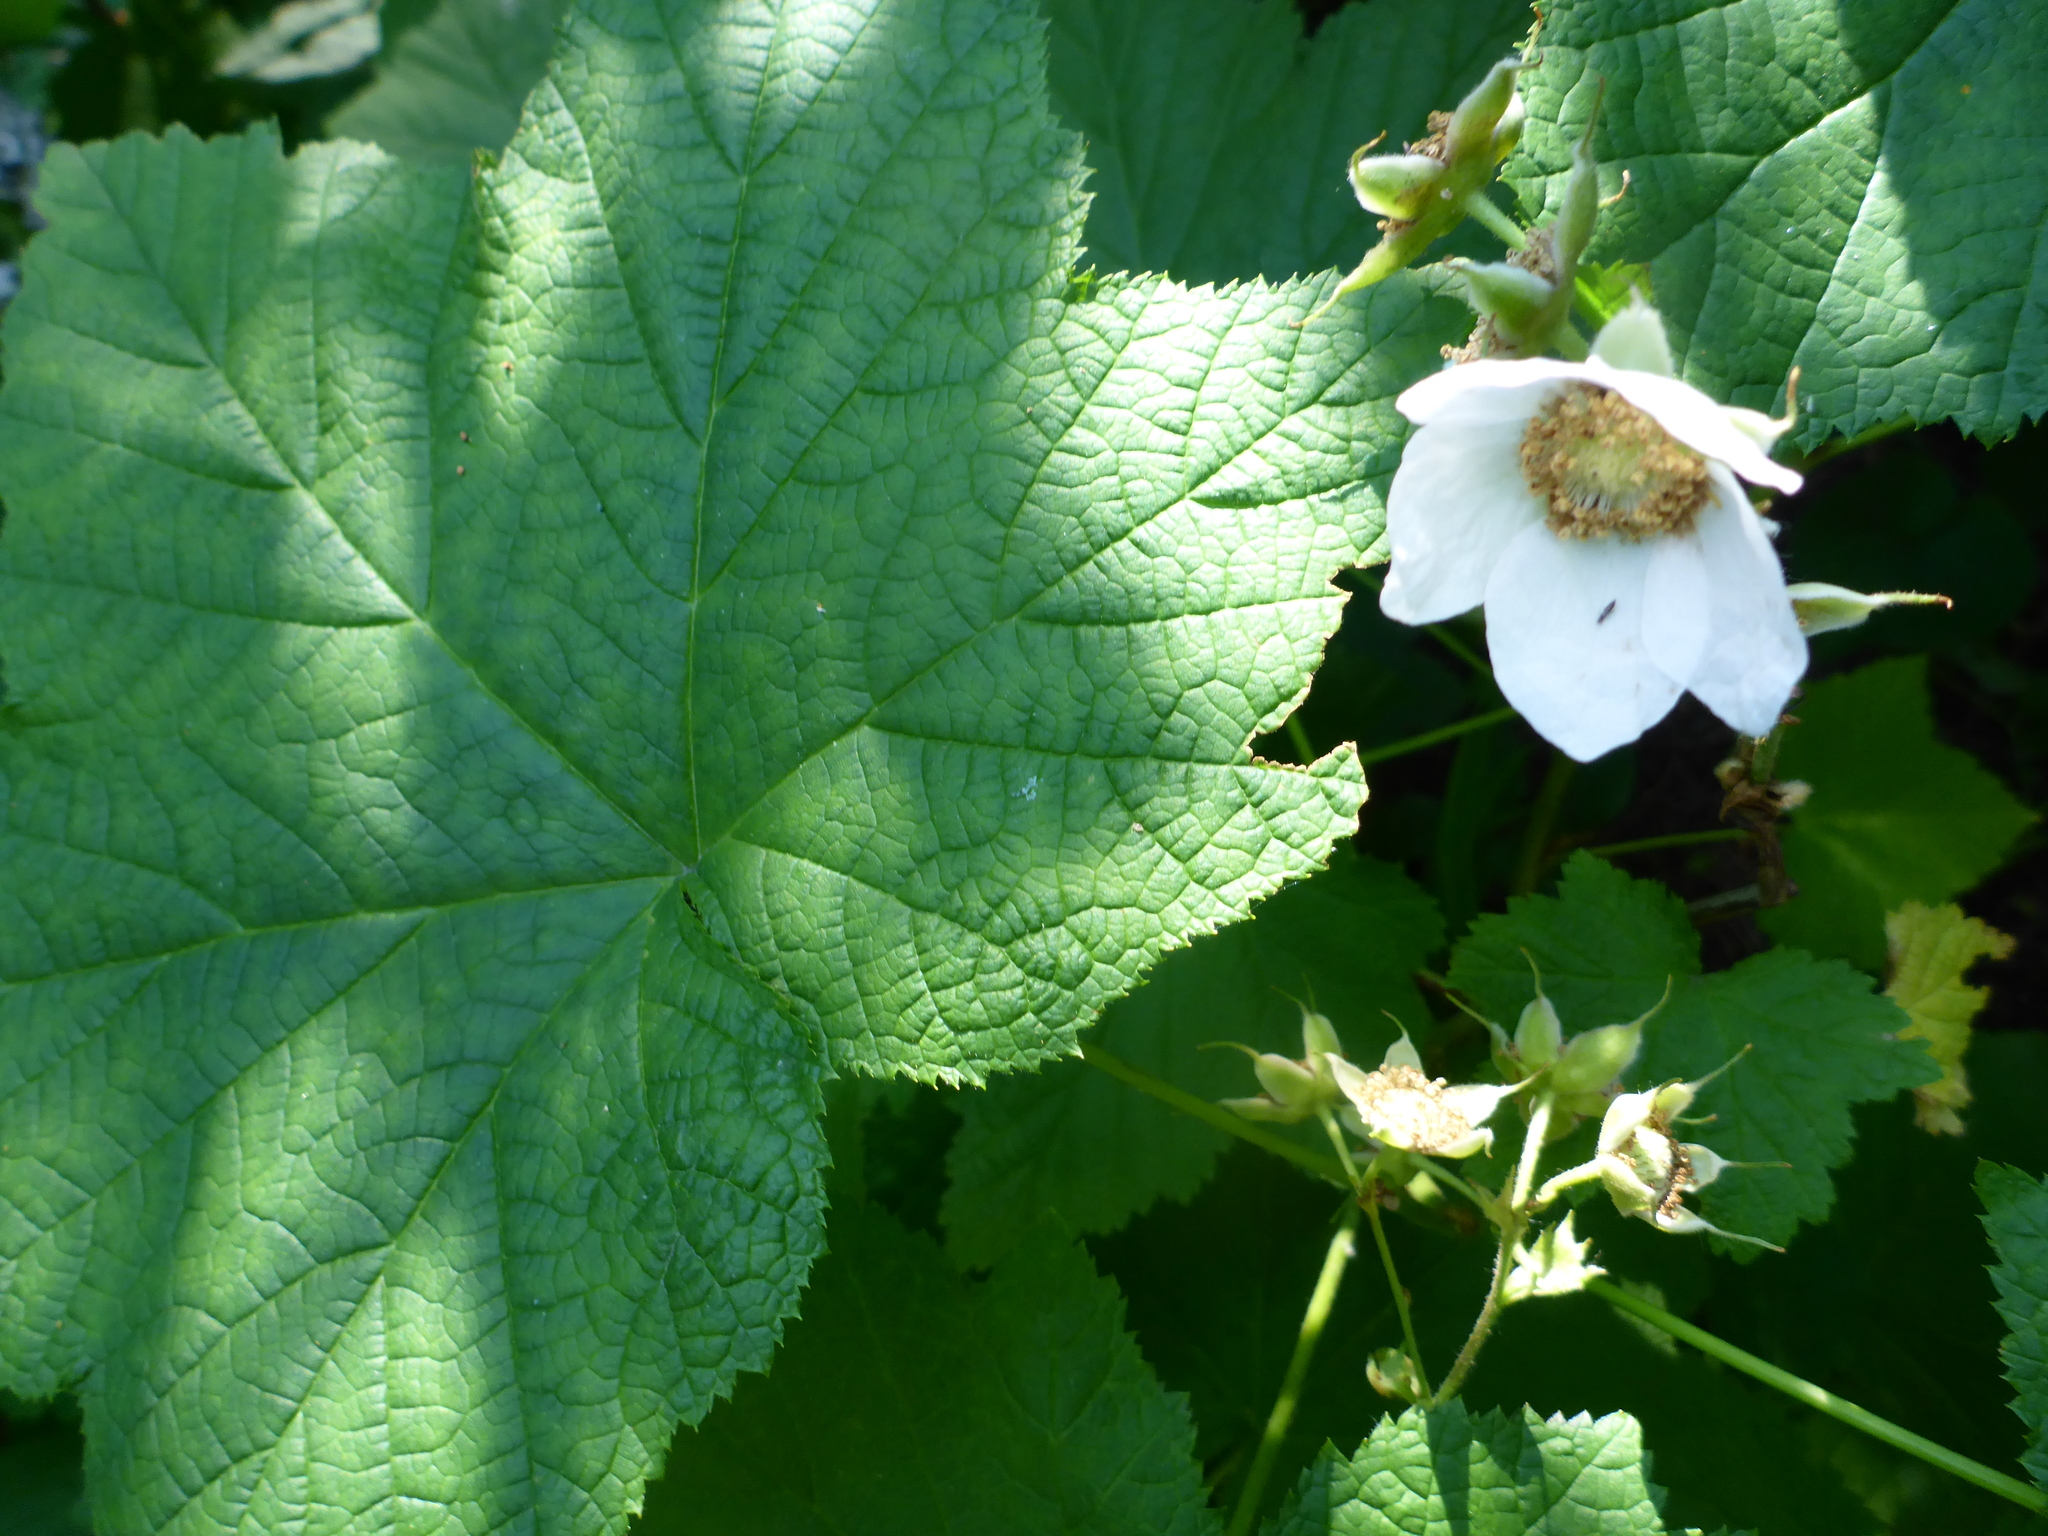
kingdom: Plantae
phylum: Tracheophyta
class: Magnoliopsida
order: Rosales
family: Rosaceae
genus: Rubus
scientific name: Rubus parviflorus
